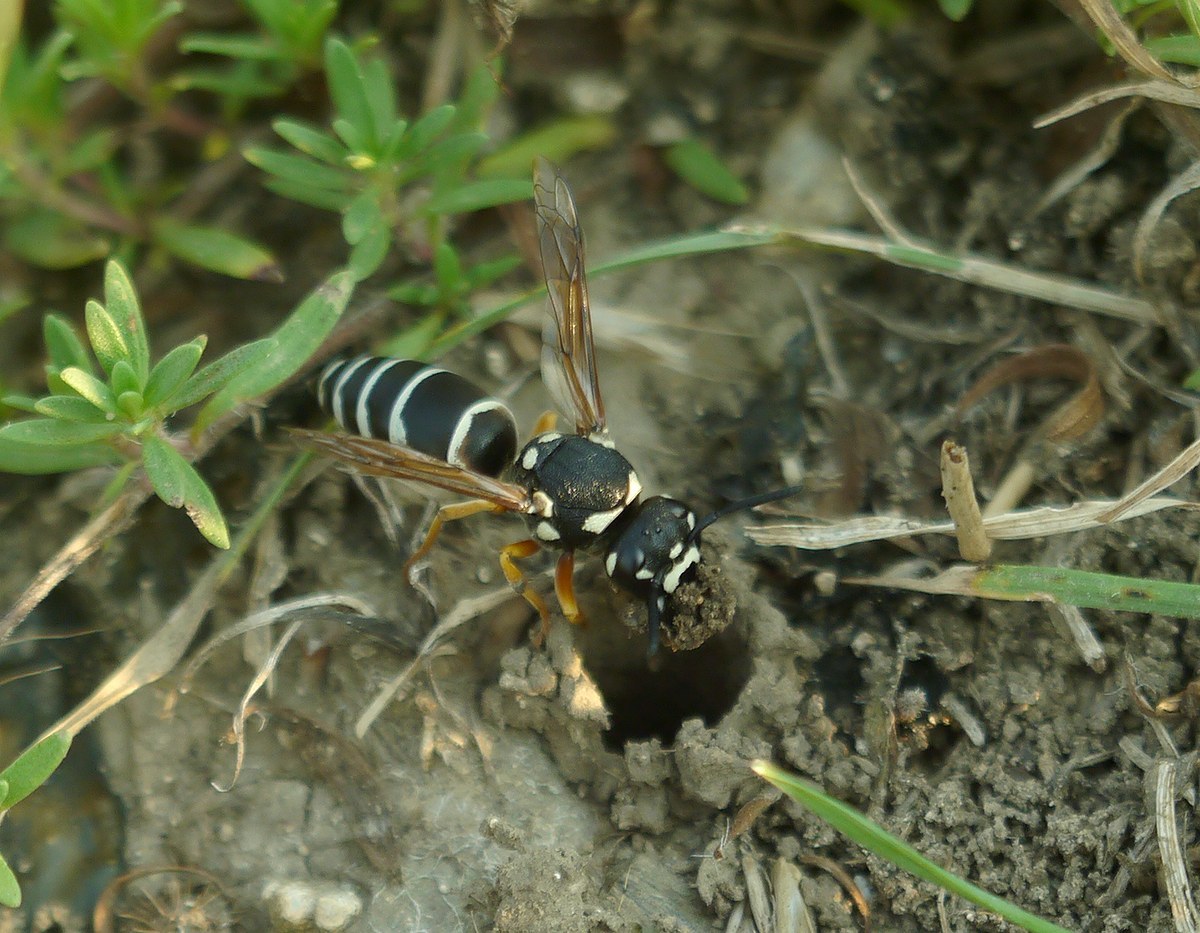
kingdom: Animalia
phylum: Arthropoda
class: Insecta
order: Hymenoptera
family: Eumenidae
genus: Hemipterochilus
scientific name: Hemipterochilus bembeciformis
